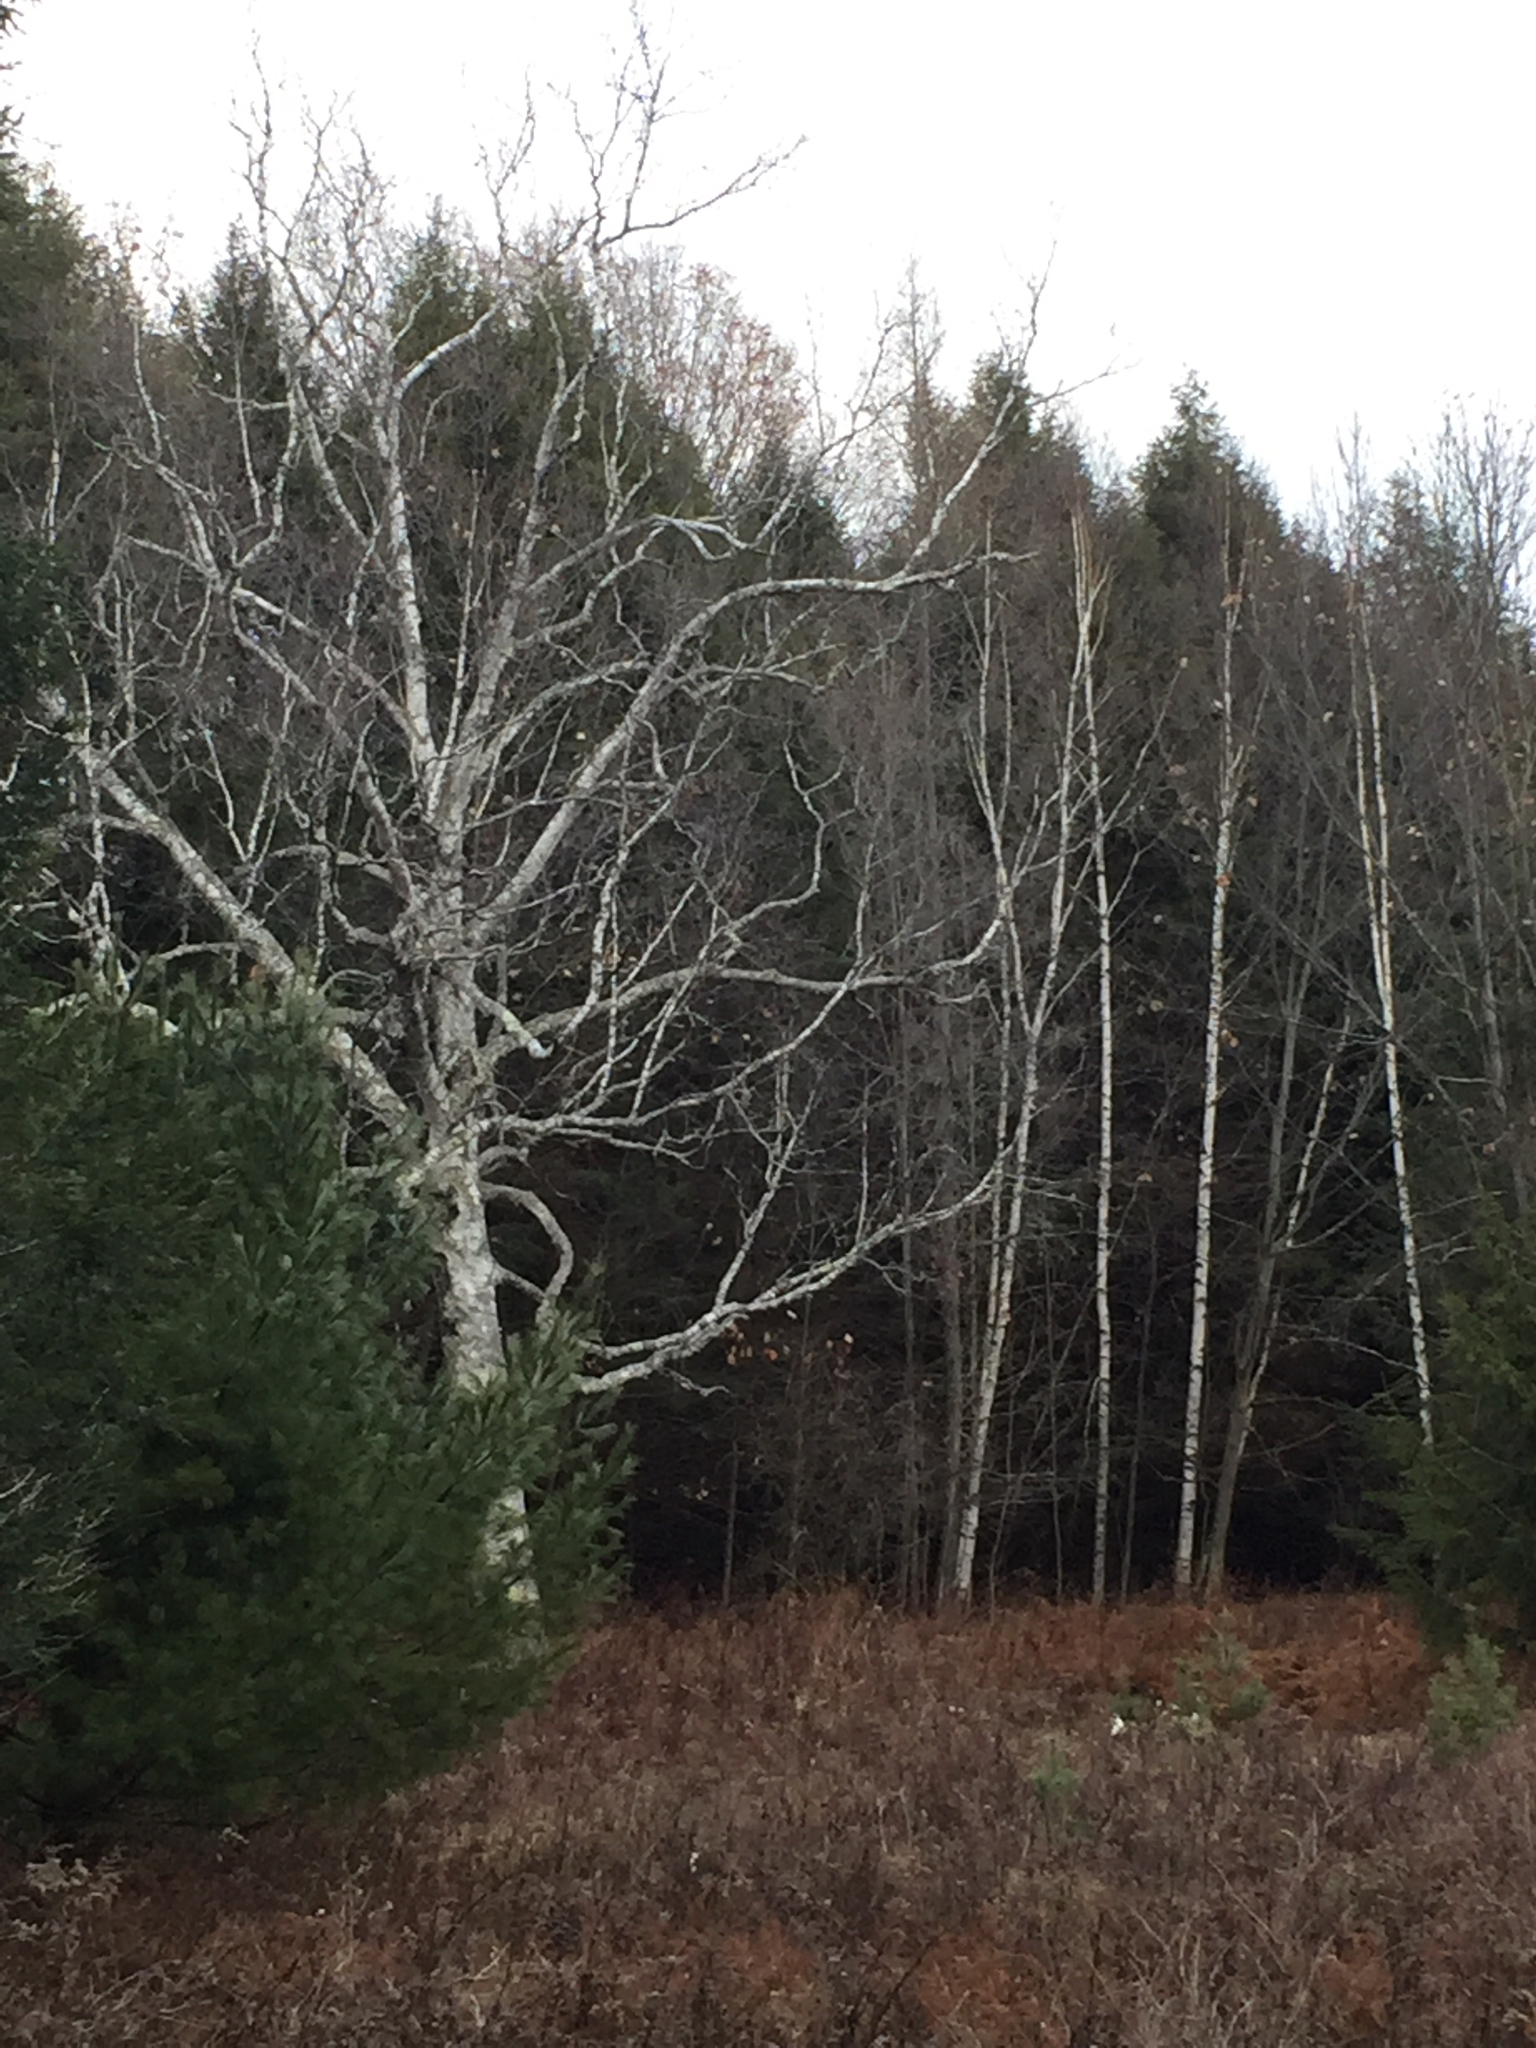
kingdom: Plantae
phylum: Tracheophyta
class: Magnoliopsida
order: Fagales
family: Betulaceae
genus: Betula
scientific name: Betula papyrifera
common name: Paper birch
